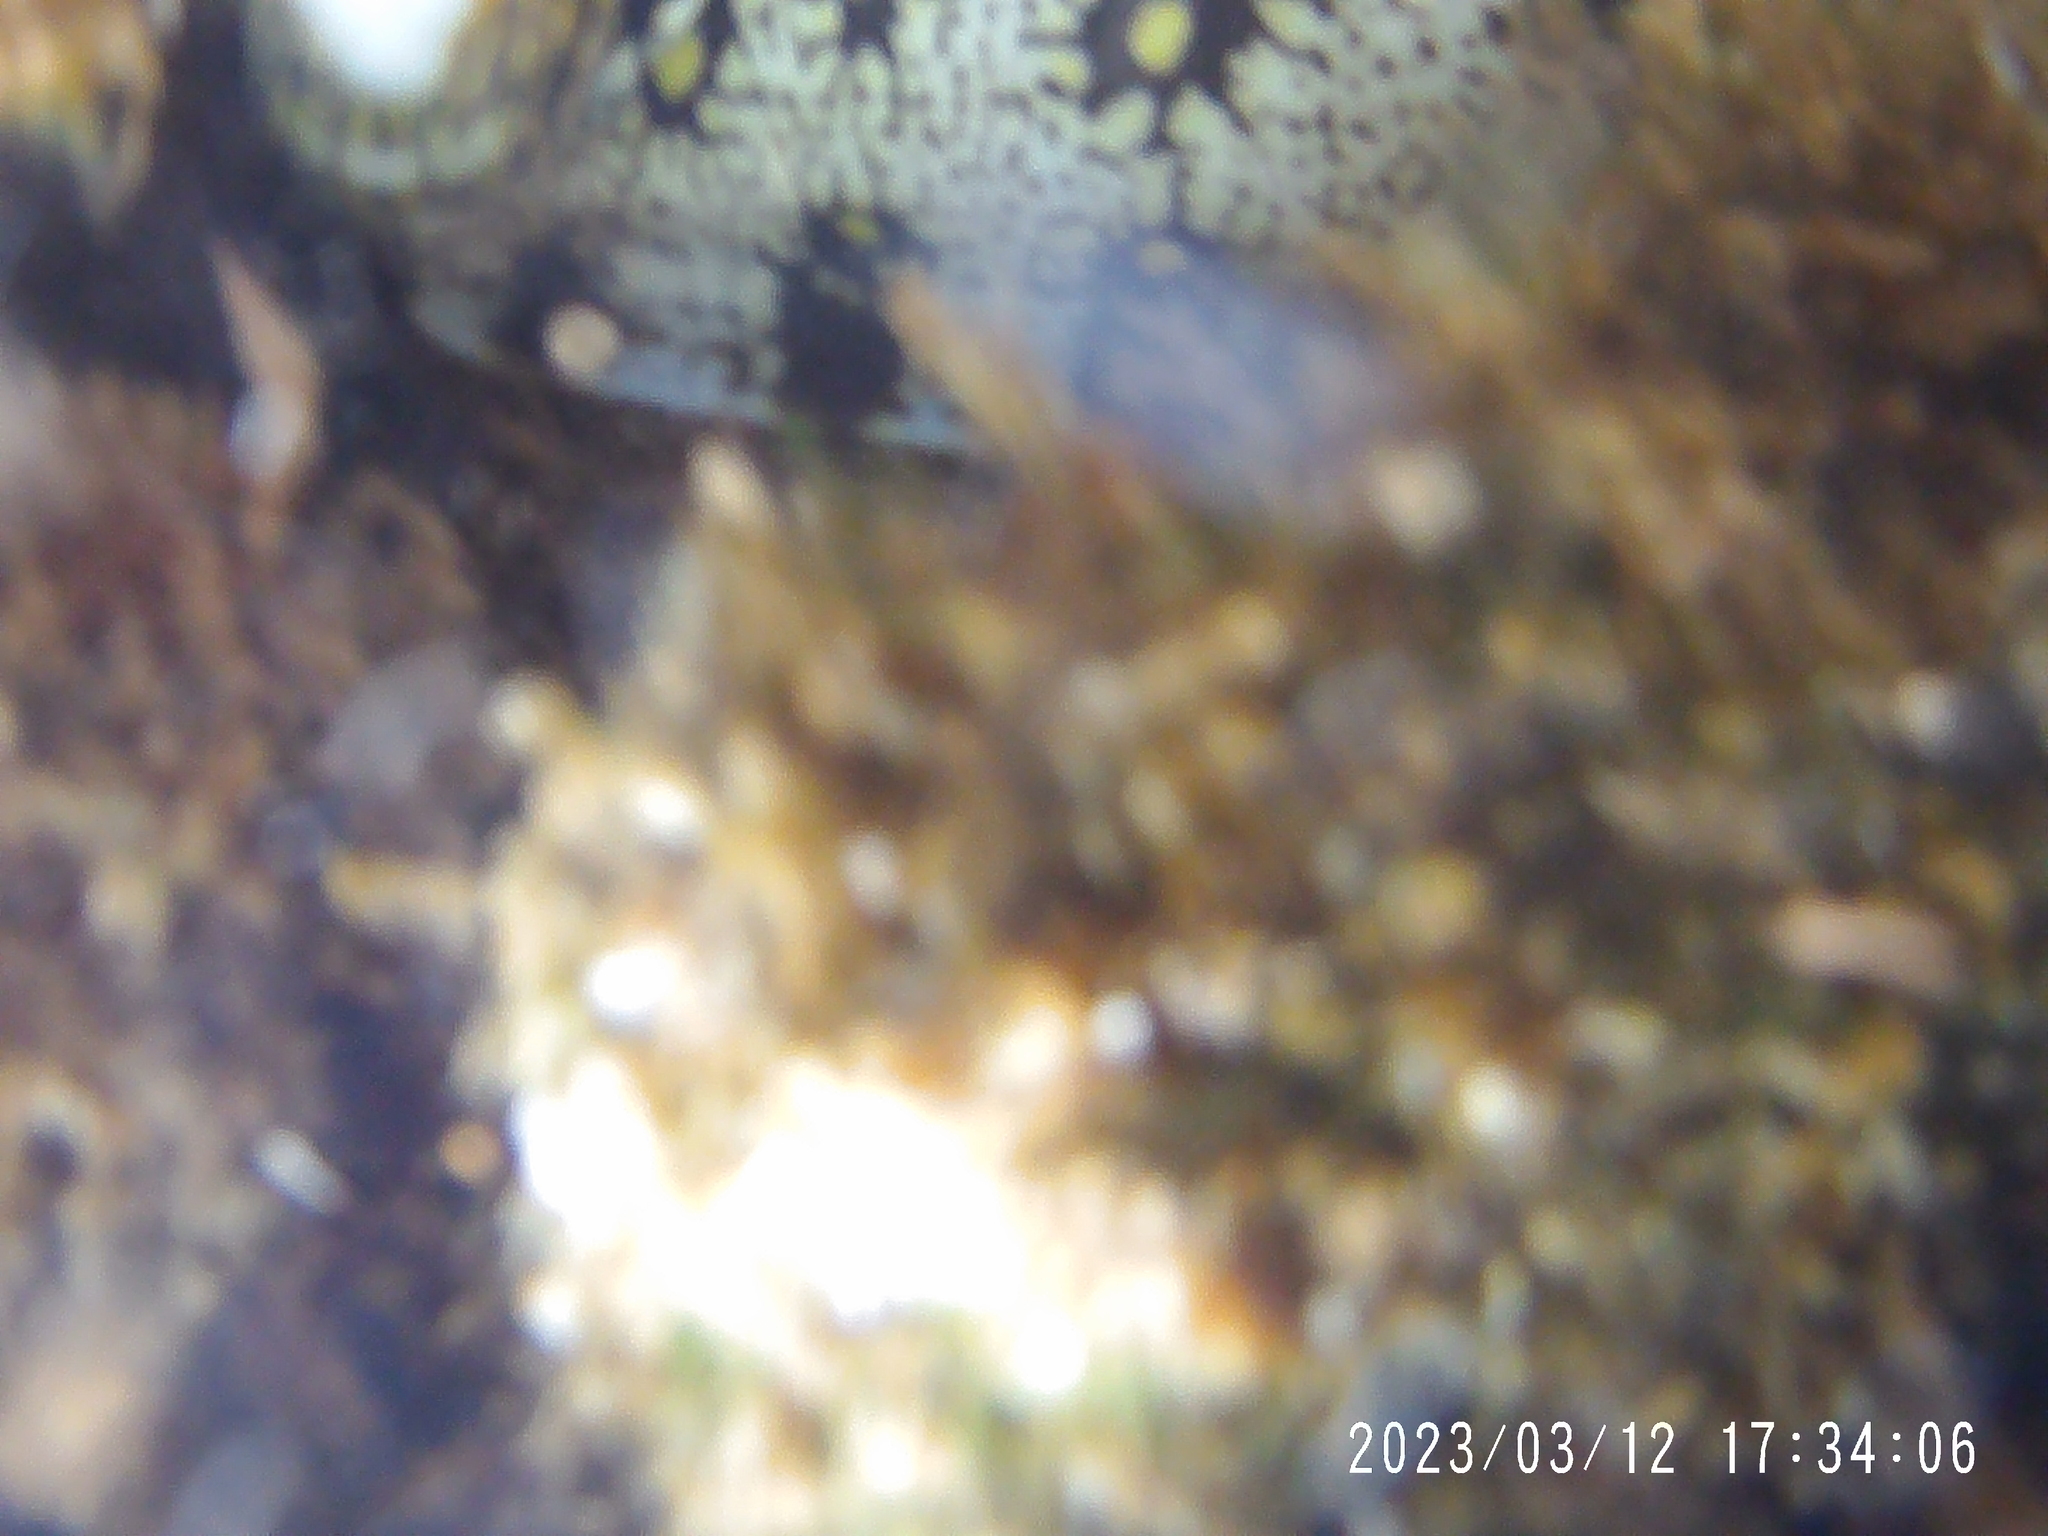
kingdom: Animalia
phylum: Chordata
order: Anguilliformes
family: Muraenidae
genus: Echidna
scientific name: Echidna nebulosa
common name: Snowflake moray
